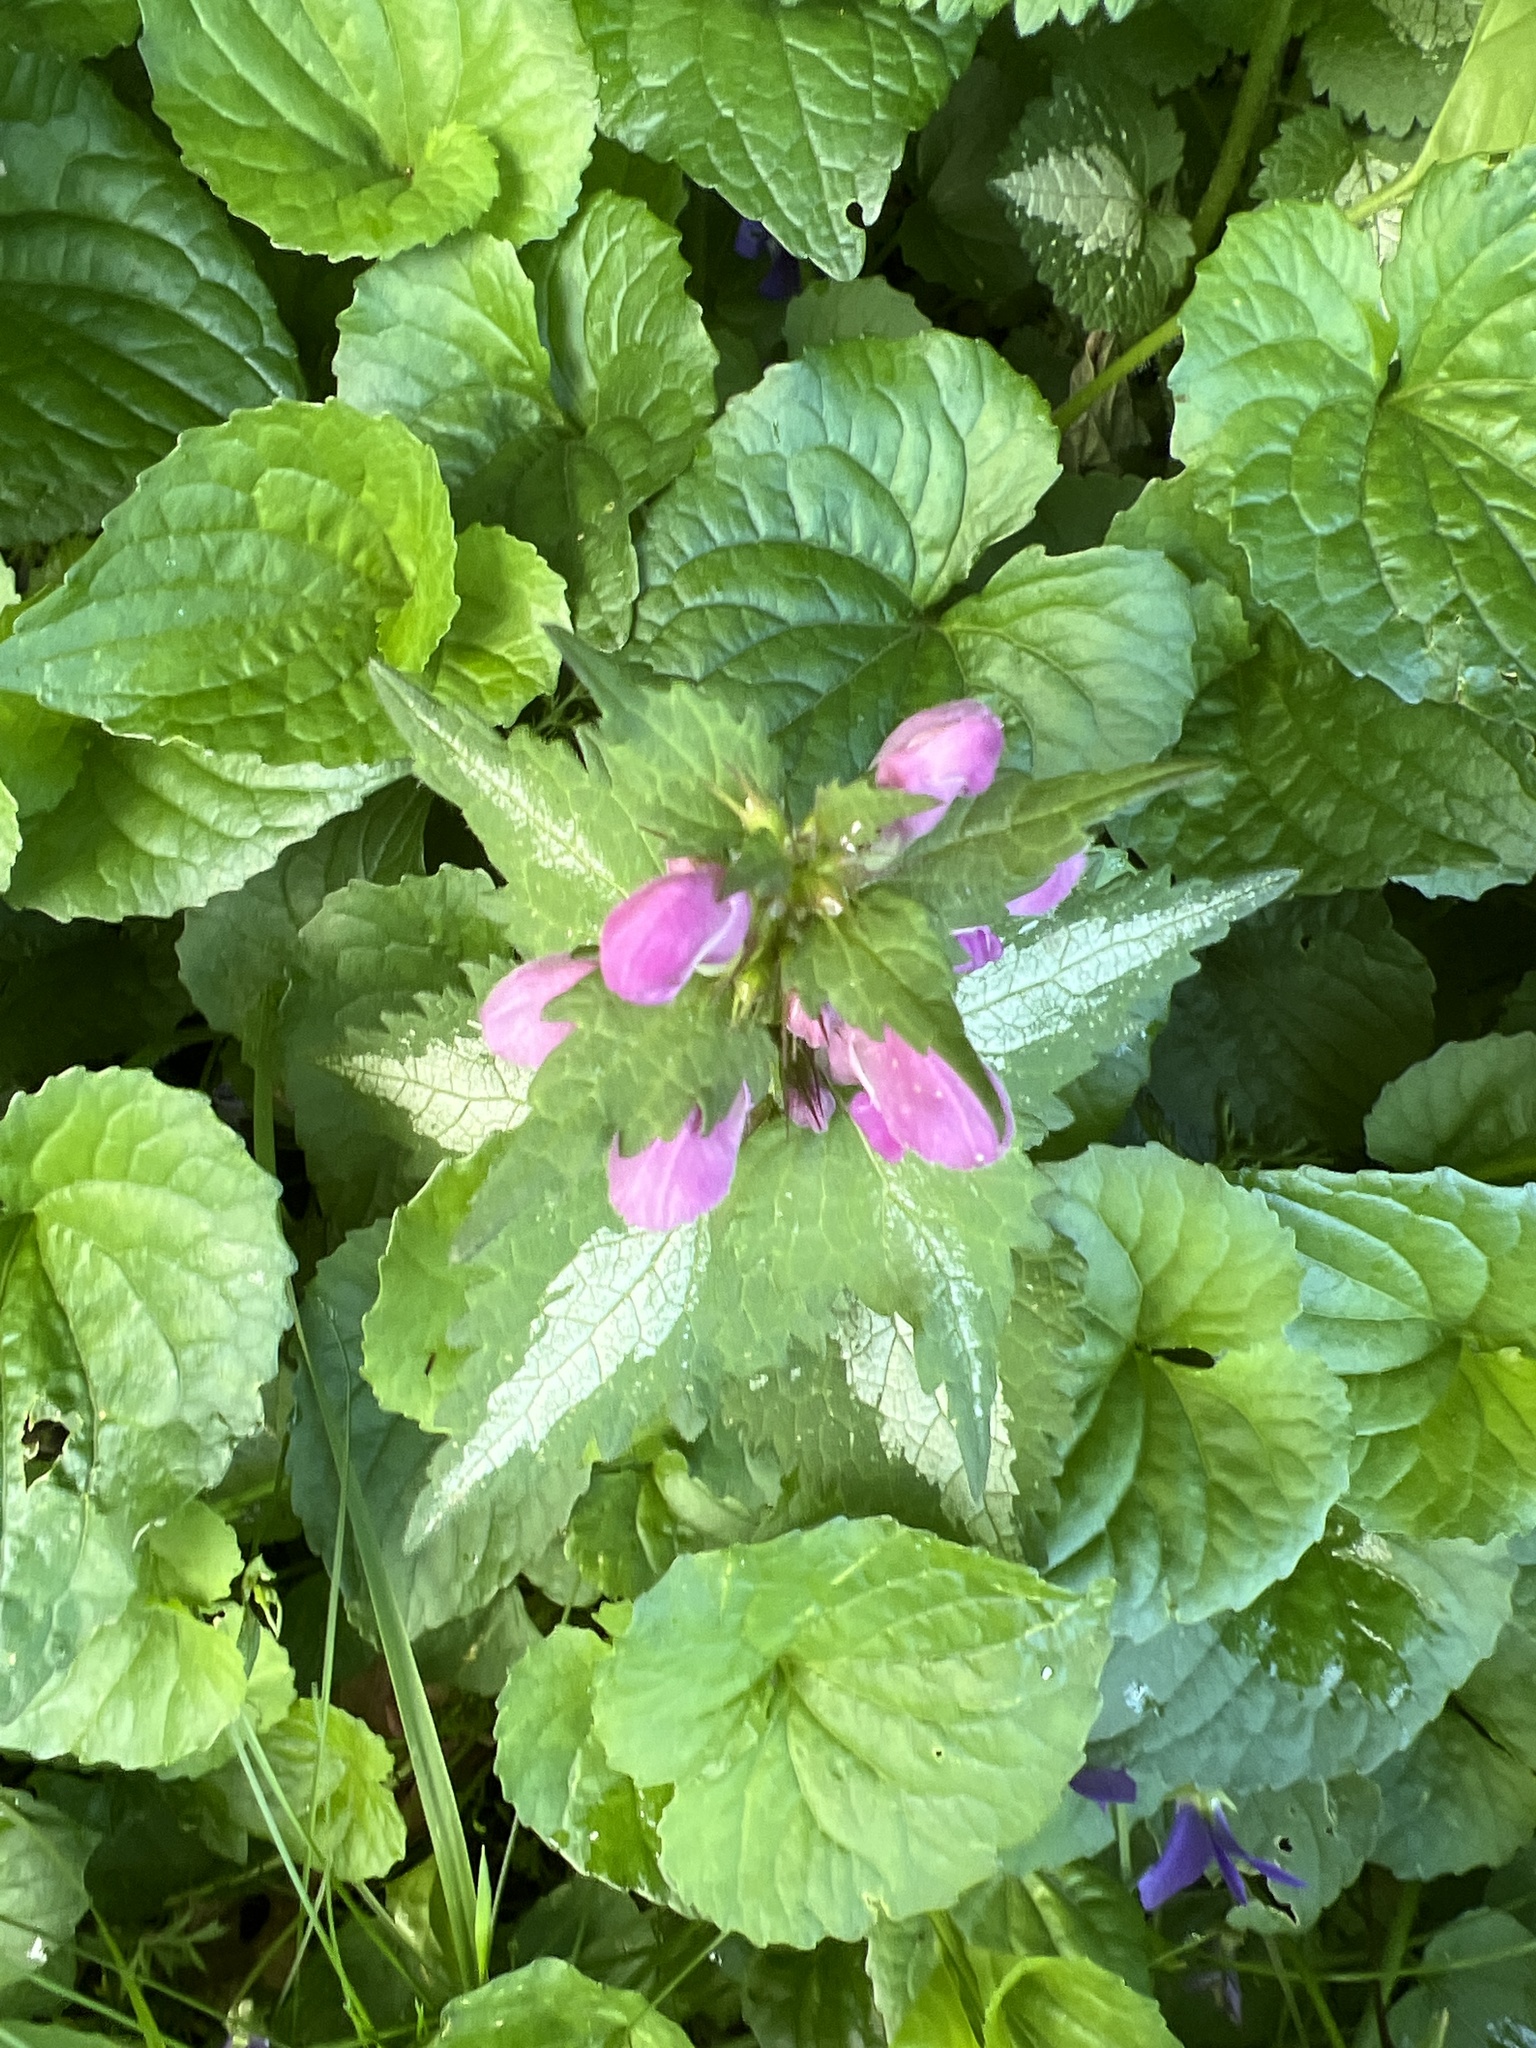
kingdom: Plantae
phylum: Tracheophyta
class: Magnoliopsida
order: Lamiales
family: Lamiaceae
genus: Lamium
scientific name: Lamium maculatum
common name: Spotted dead-nettle
